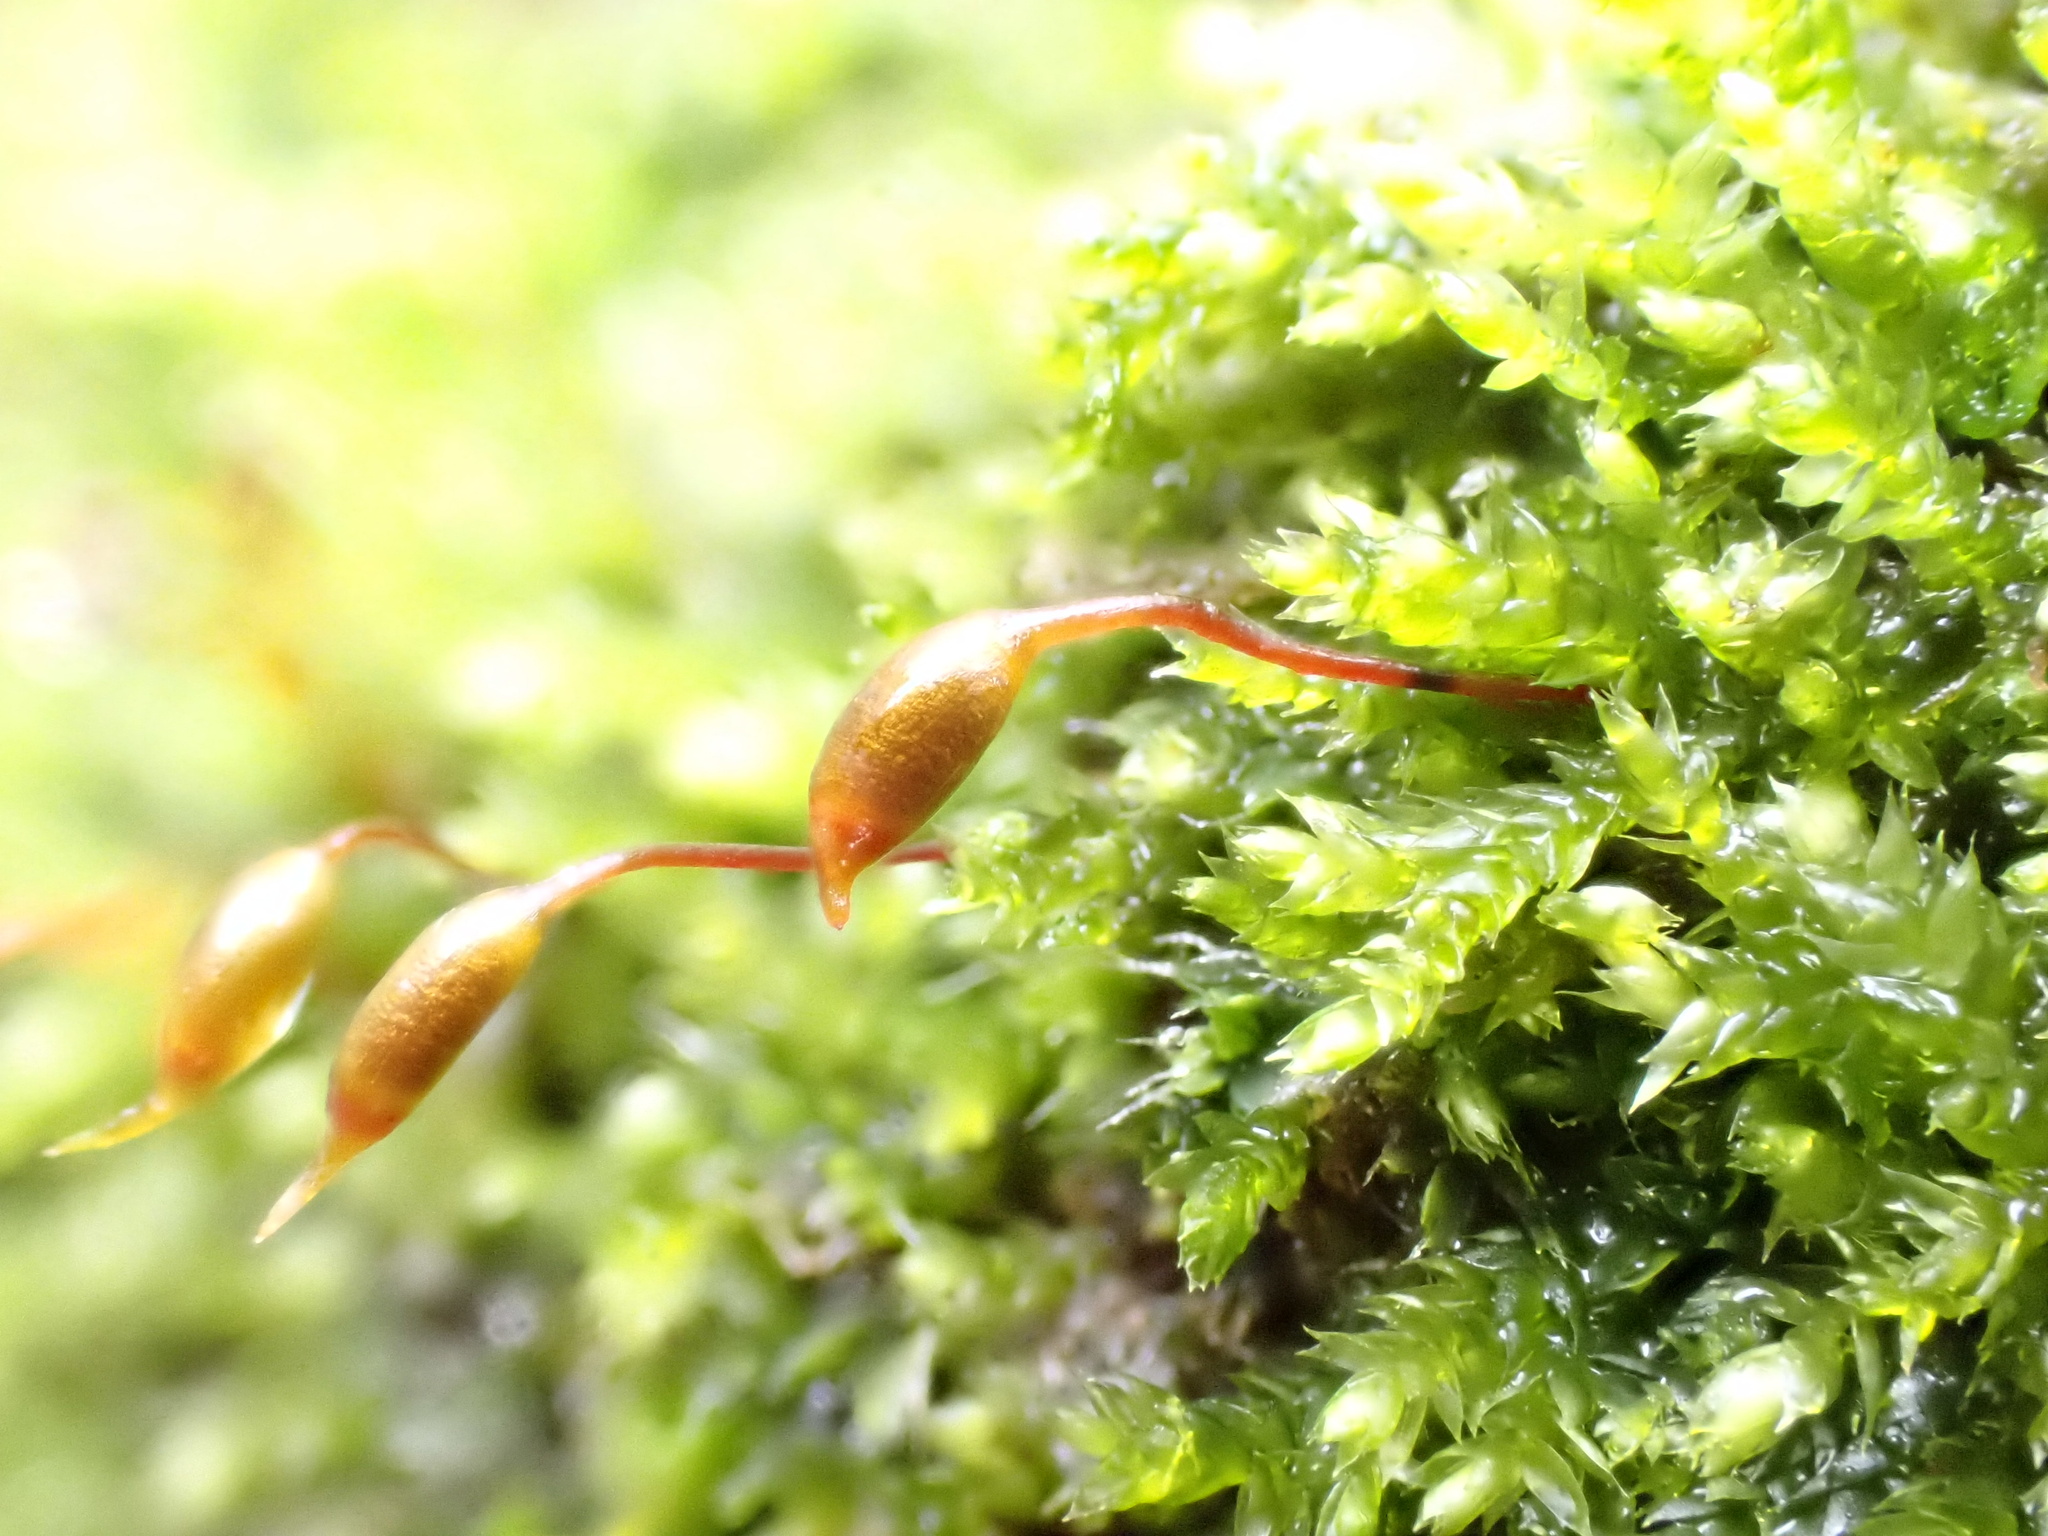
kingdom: Plantae
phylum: Bryophyta
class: Bryopsida
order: Hypnales
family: Brachytheciaceae
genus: Rhynchostegium
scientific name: Rhynchostegium confertum
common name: Clustered feather-moss
